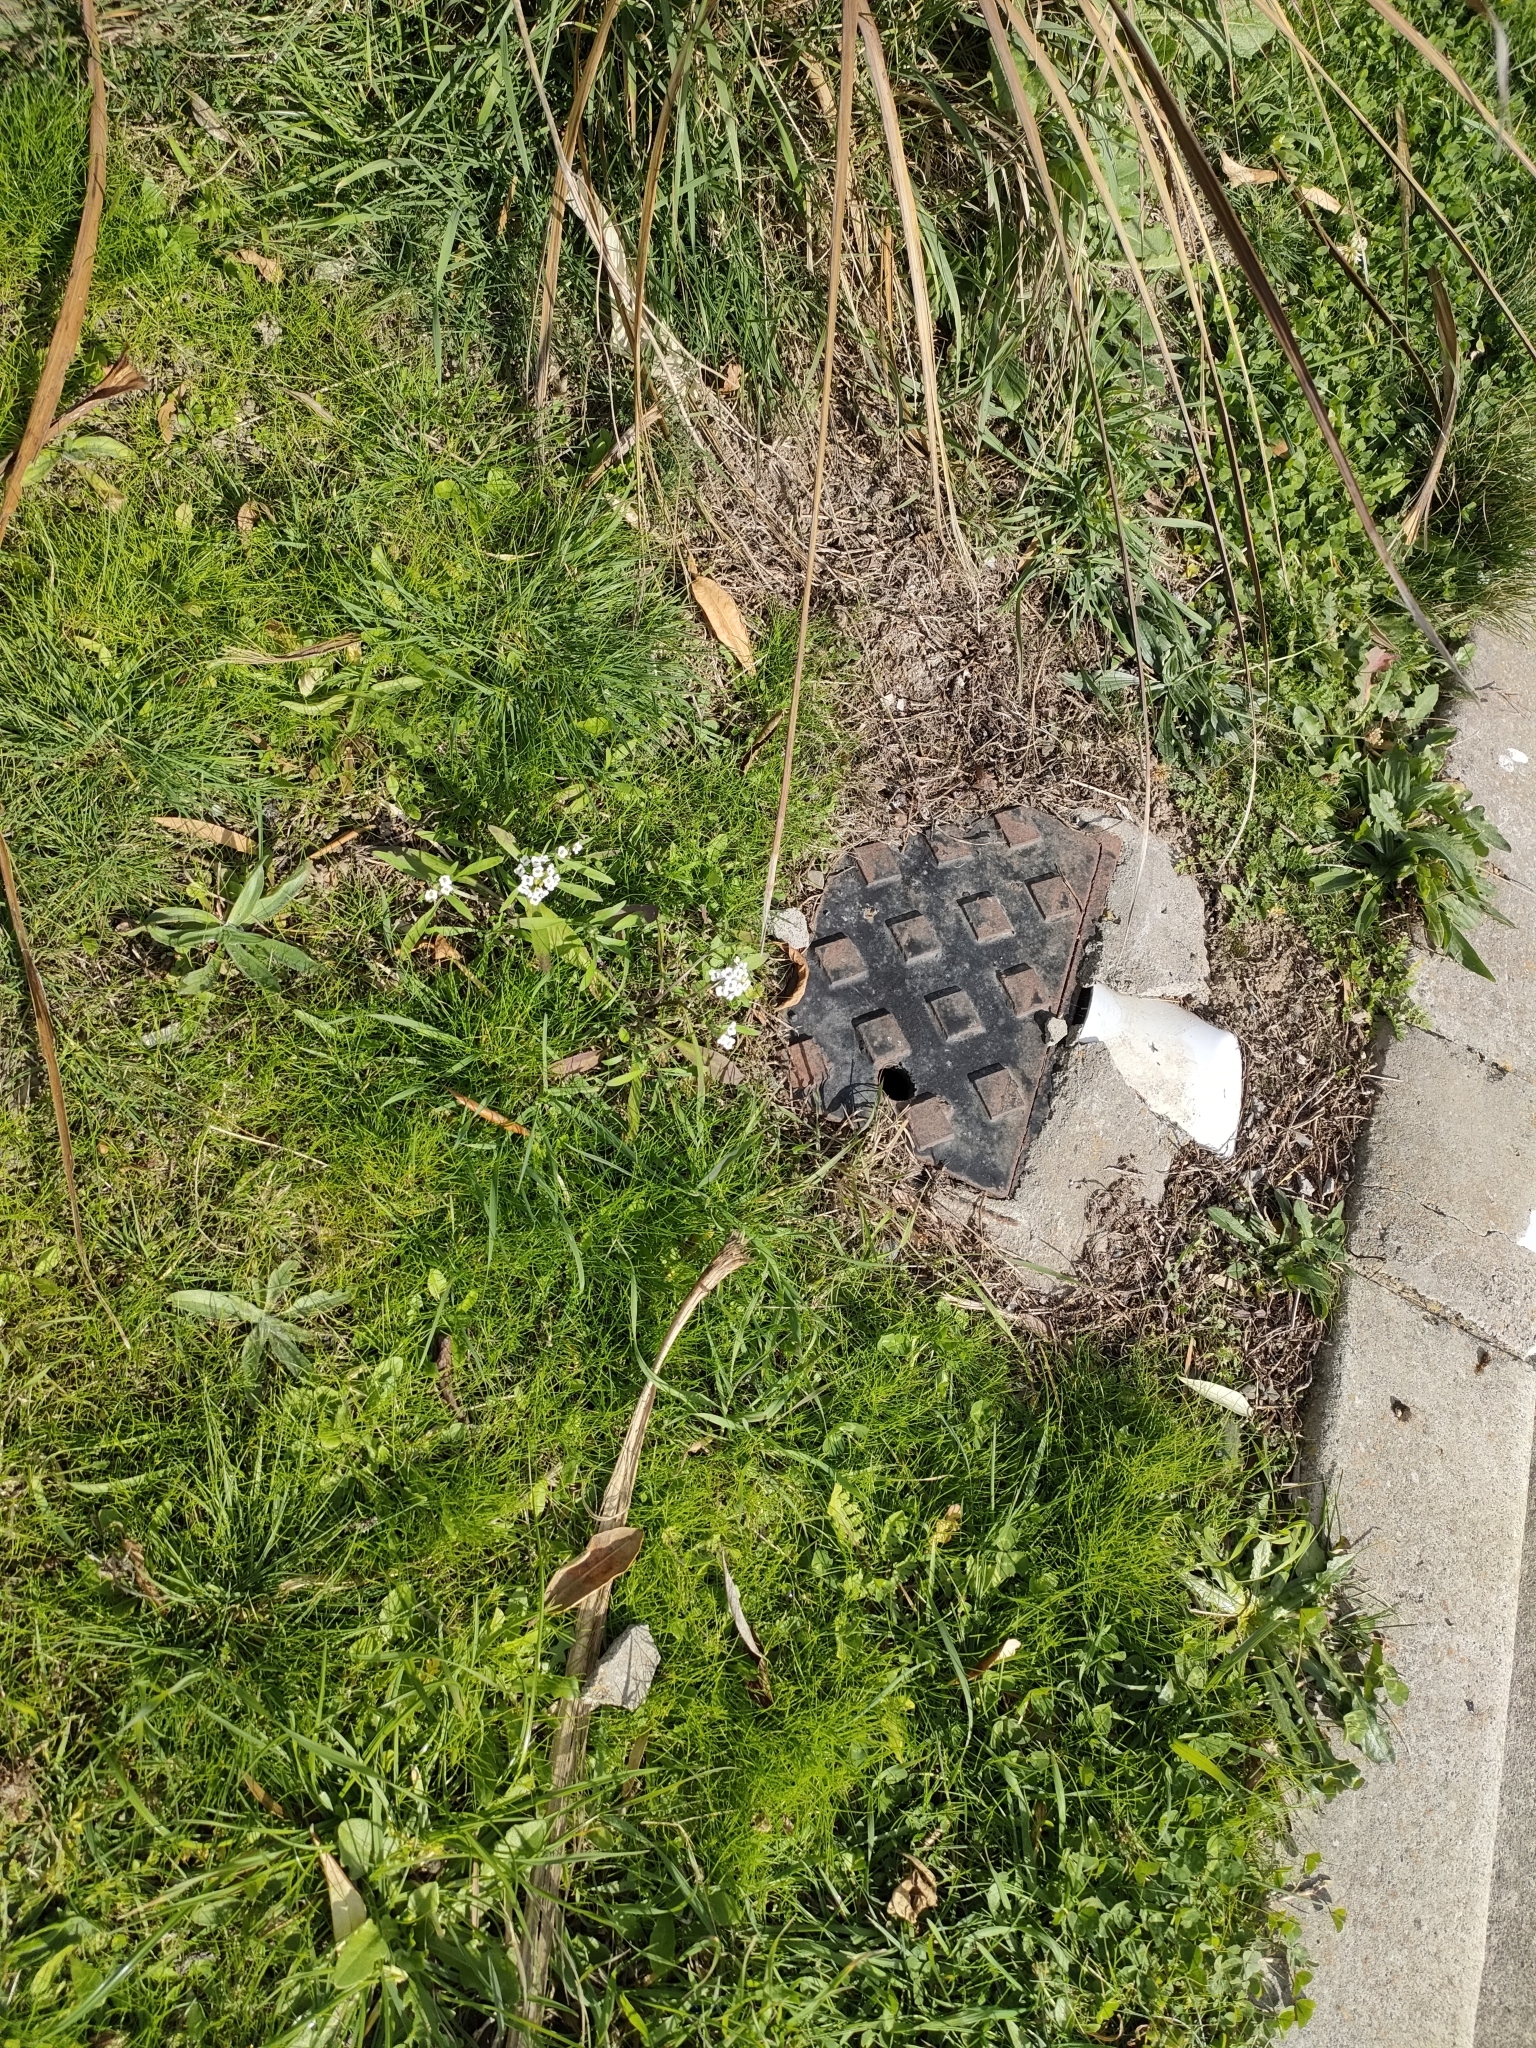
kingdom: Plantae
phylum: Tracheophyta
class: Magnoliopsida
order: Brassicales
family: Brassicaceae
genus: Lobularia
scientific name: Lobularia maritima
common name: Sweet alison
